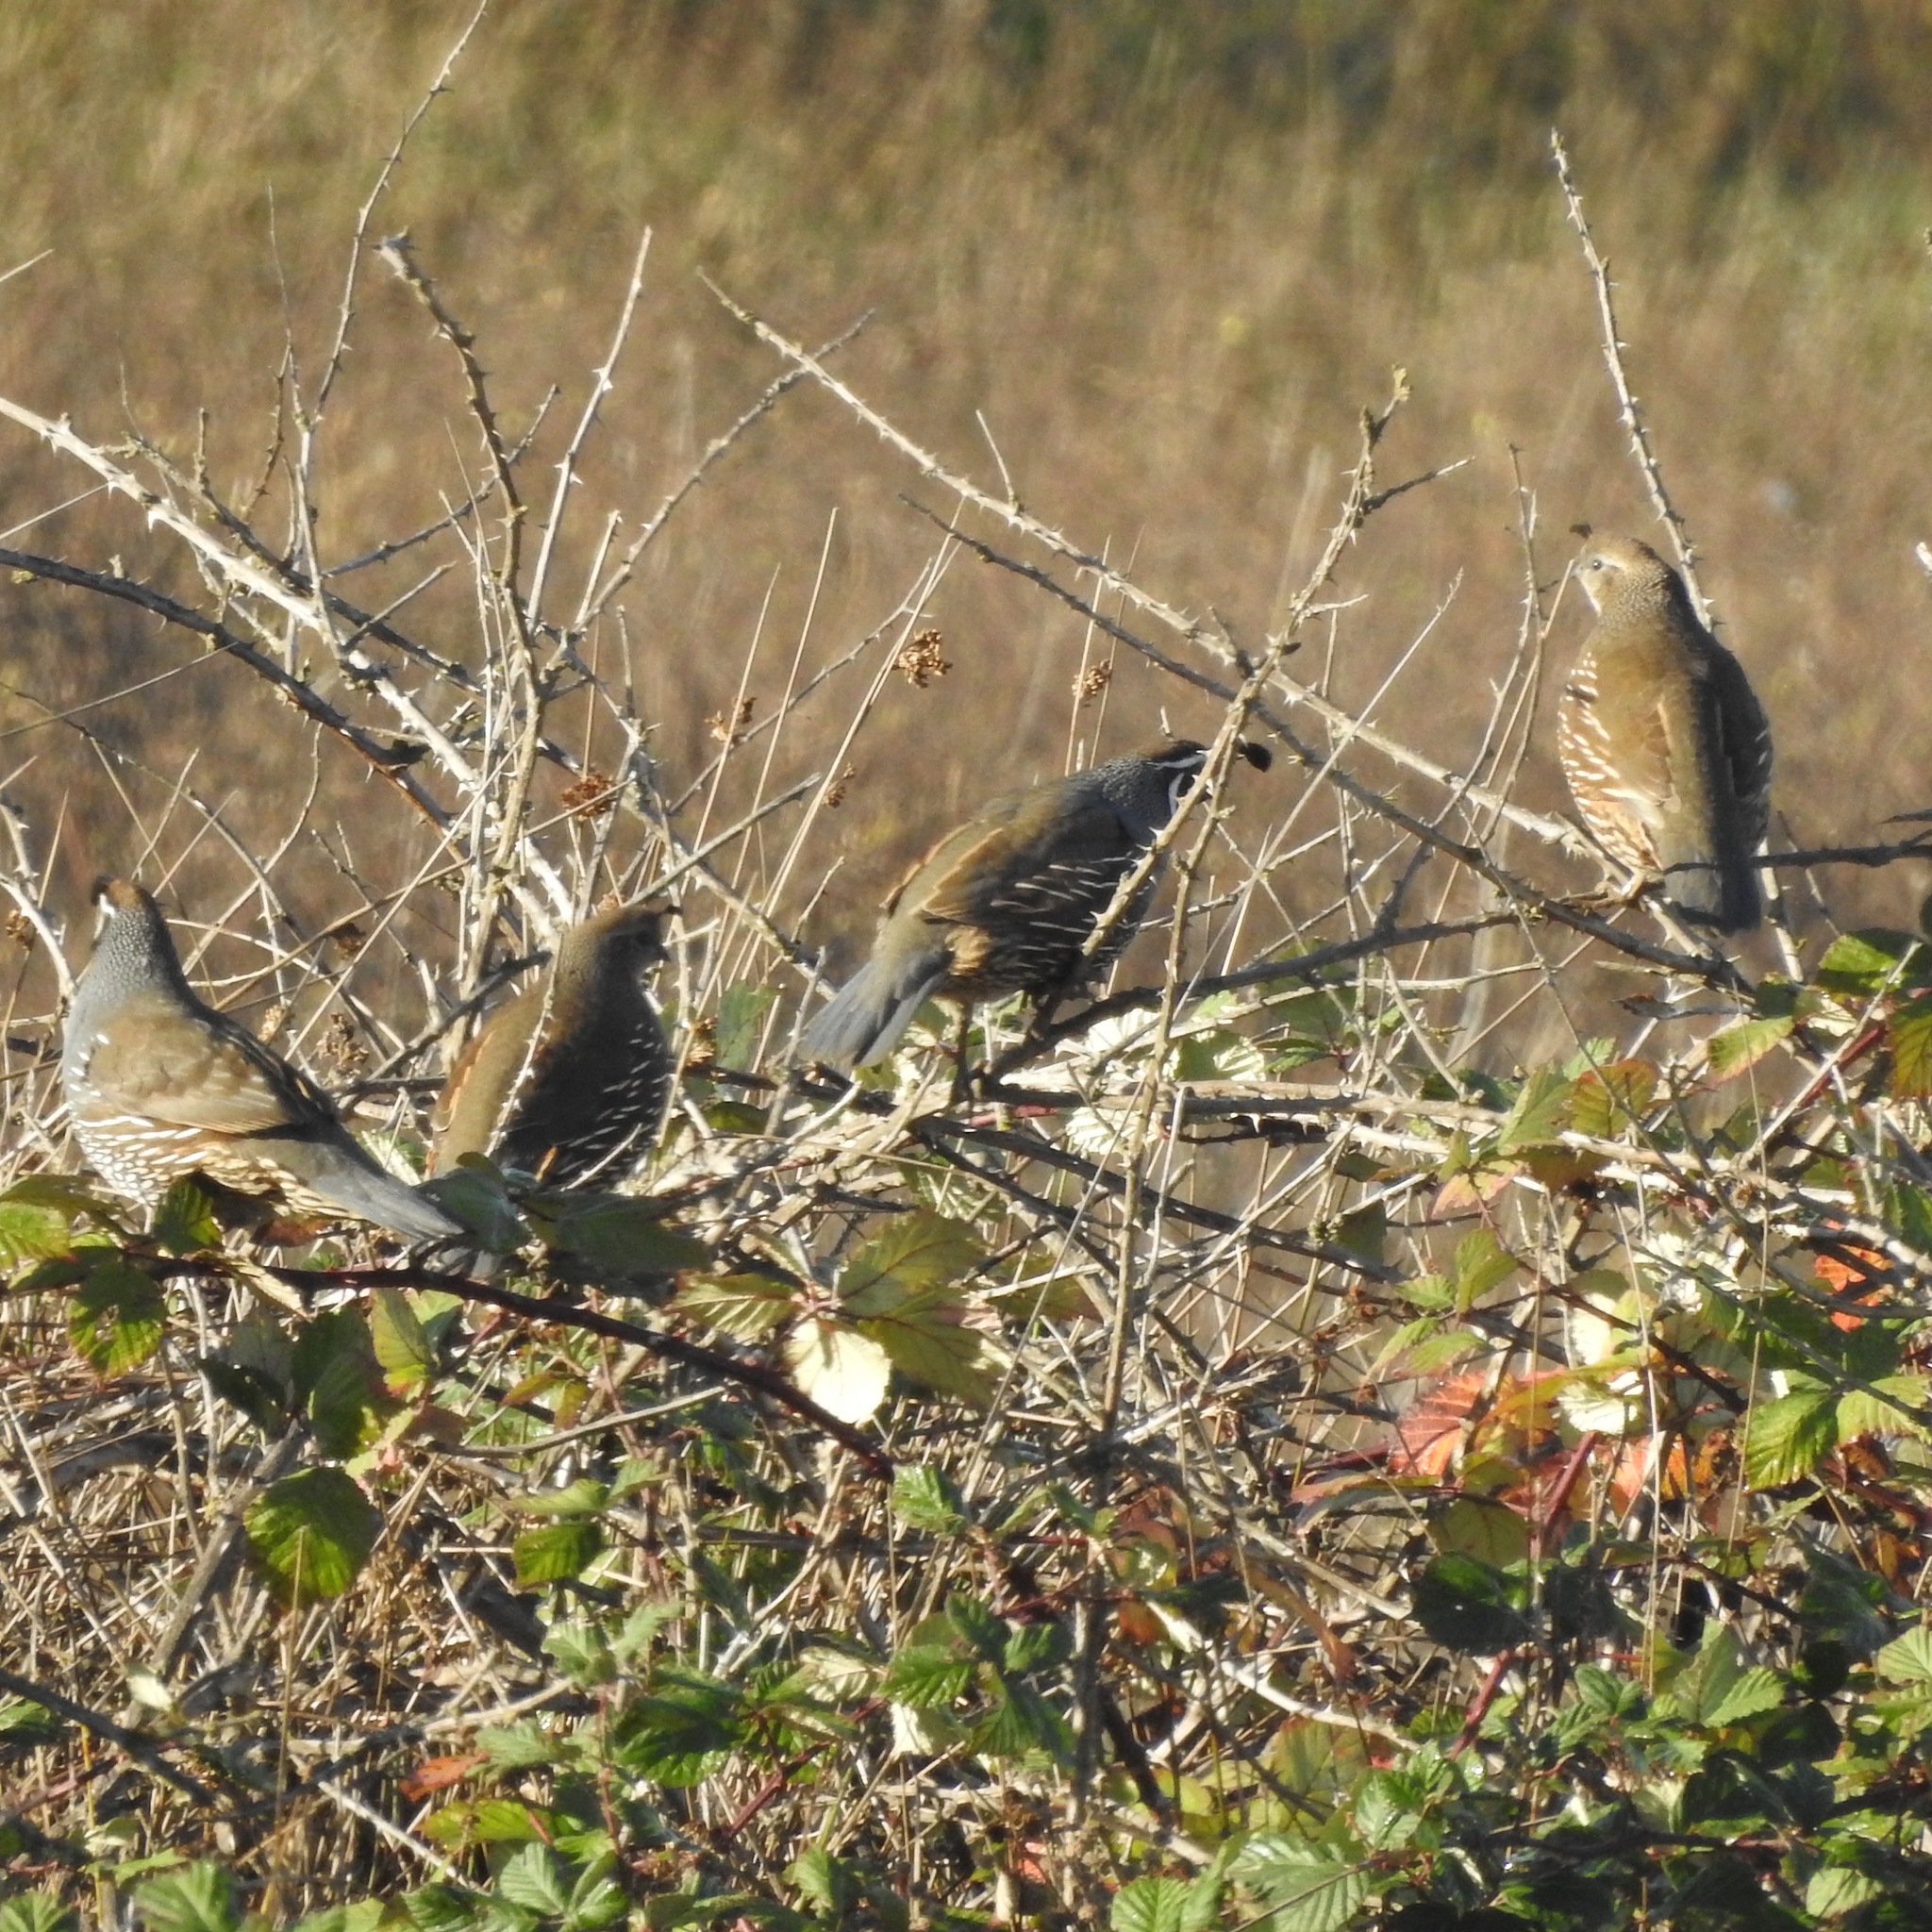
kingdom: Animalia
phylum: Chordata
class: Aves
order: Galliformes
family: Odontophoridae
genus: Callipepla
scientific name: Callipepla californica
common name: California quail
